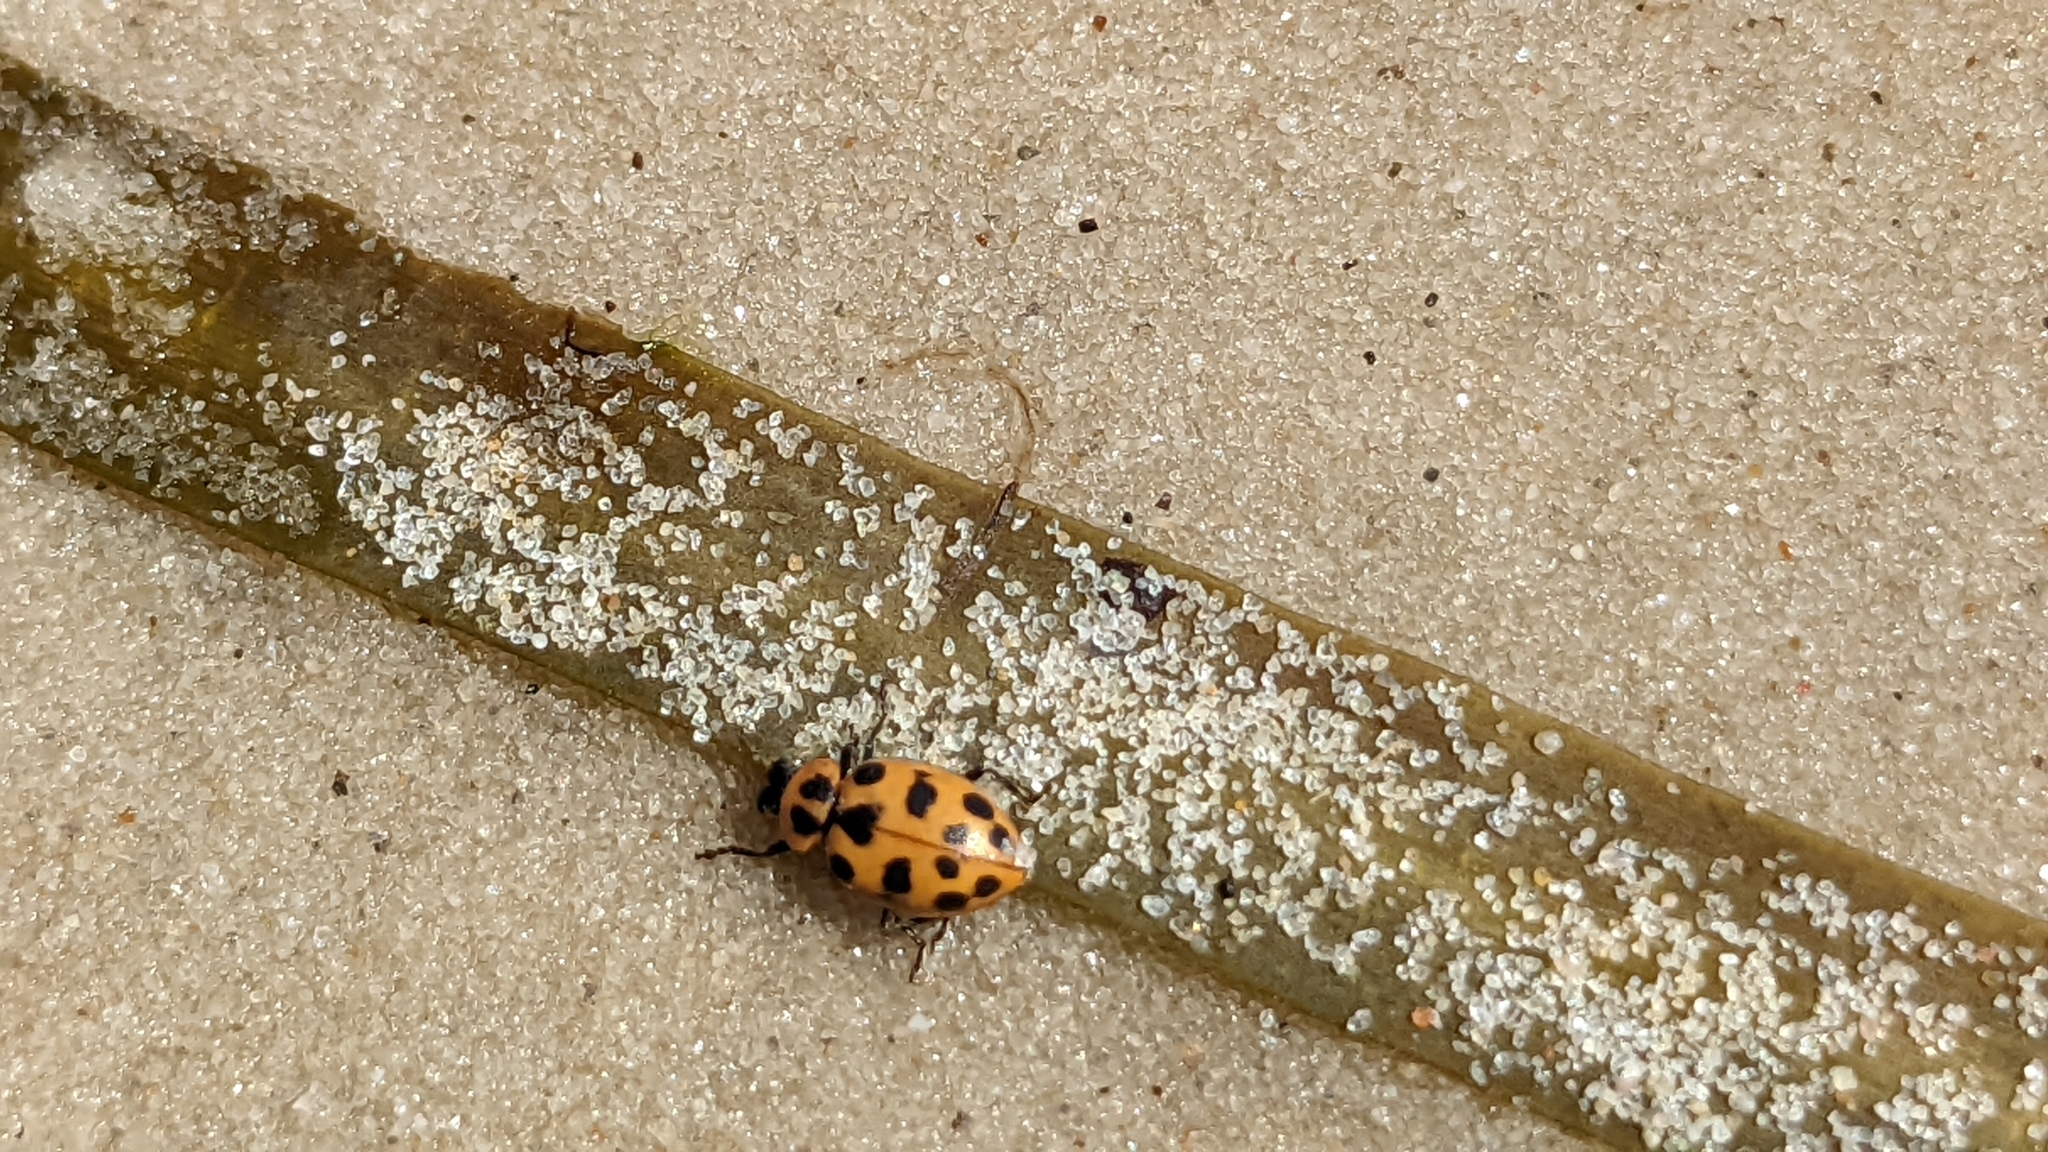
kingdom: Animalia
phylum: Arthropoda
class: Insecta
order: Coleoptera
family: Coccinellidae
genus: Coleomegilla
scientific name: Coleomegilla maculata
